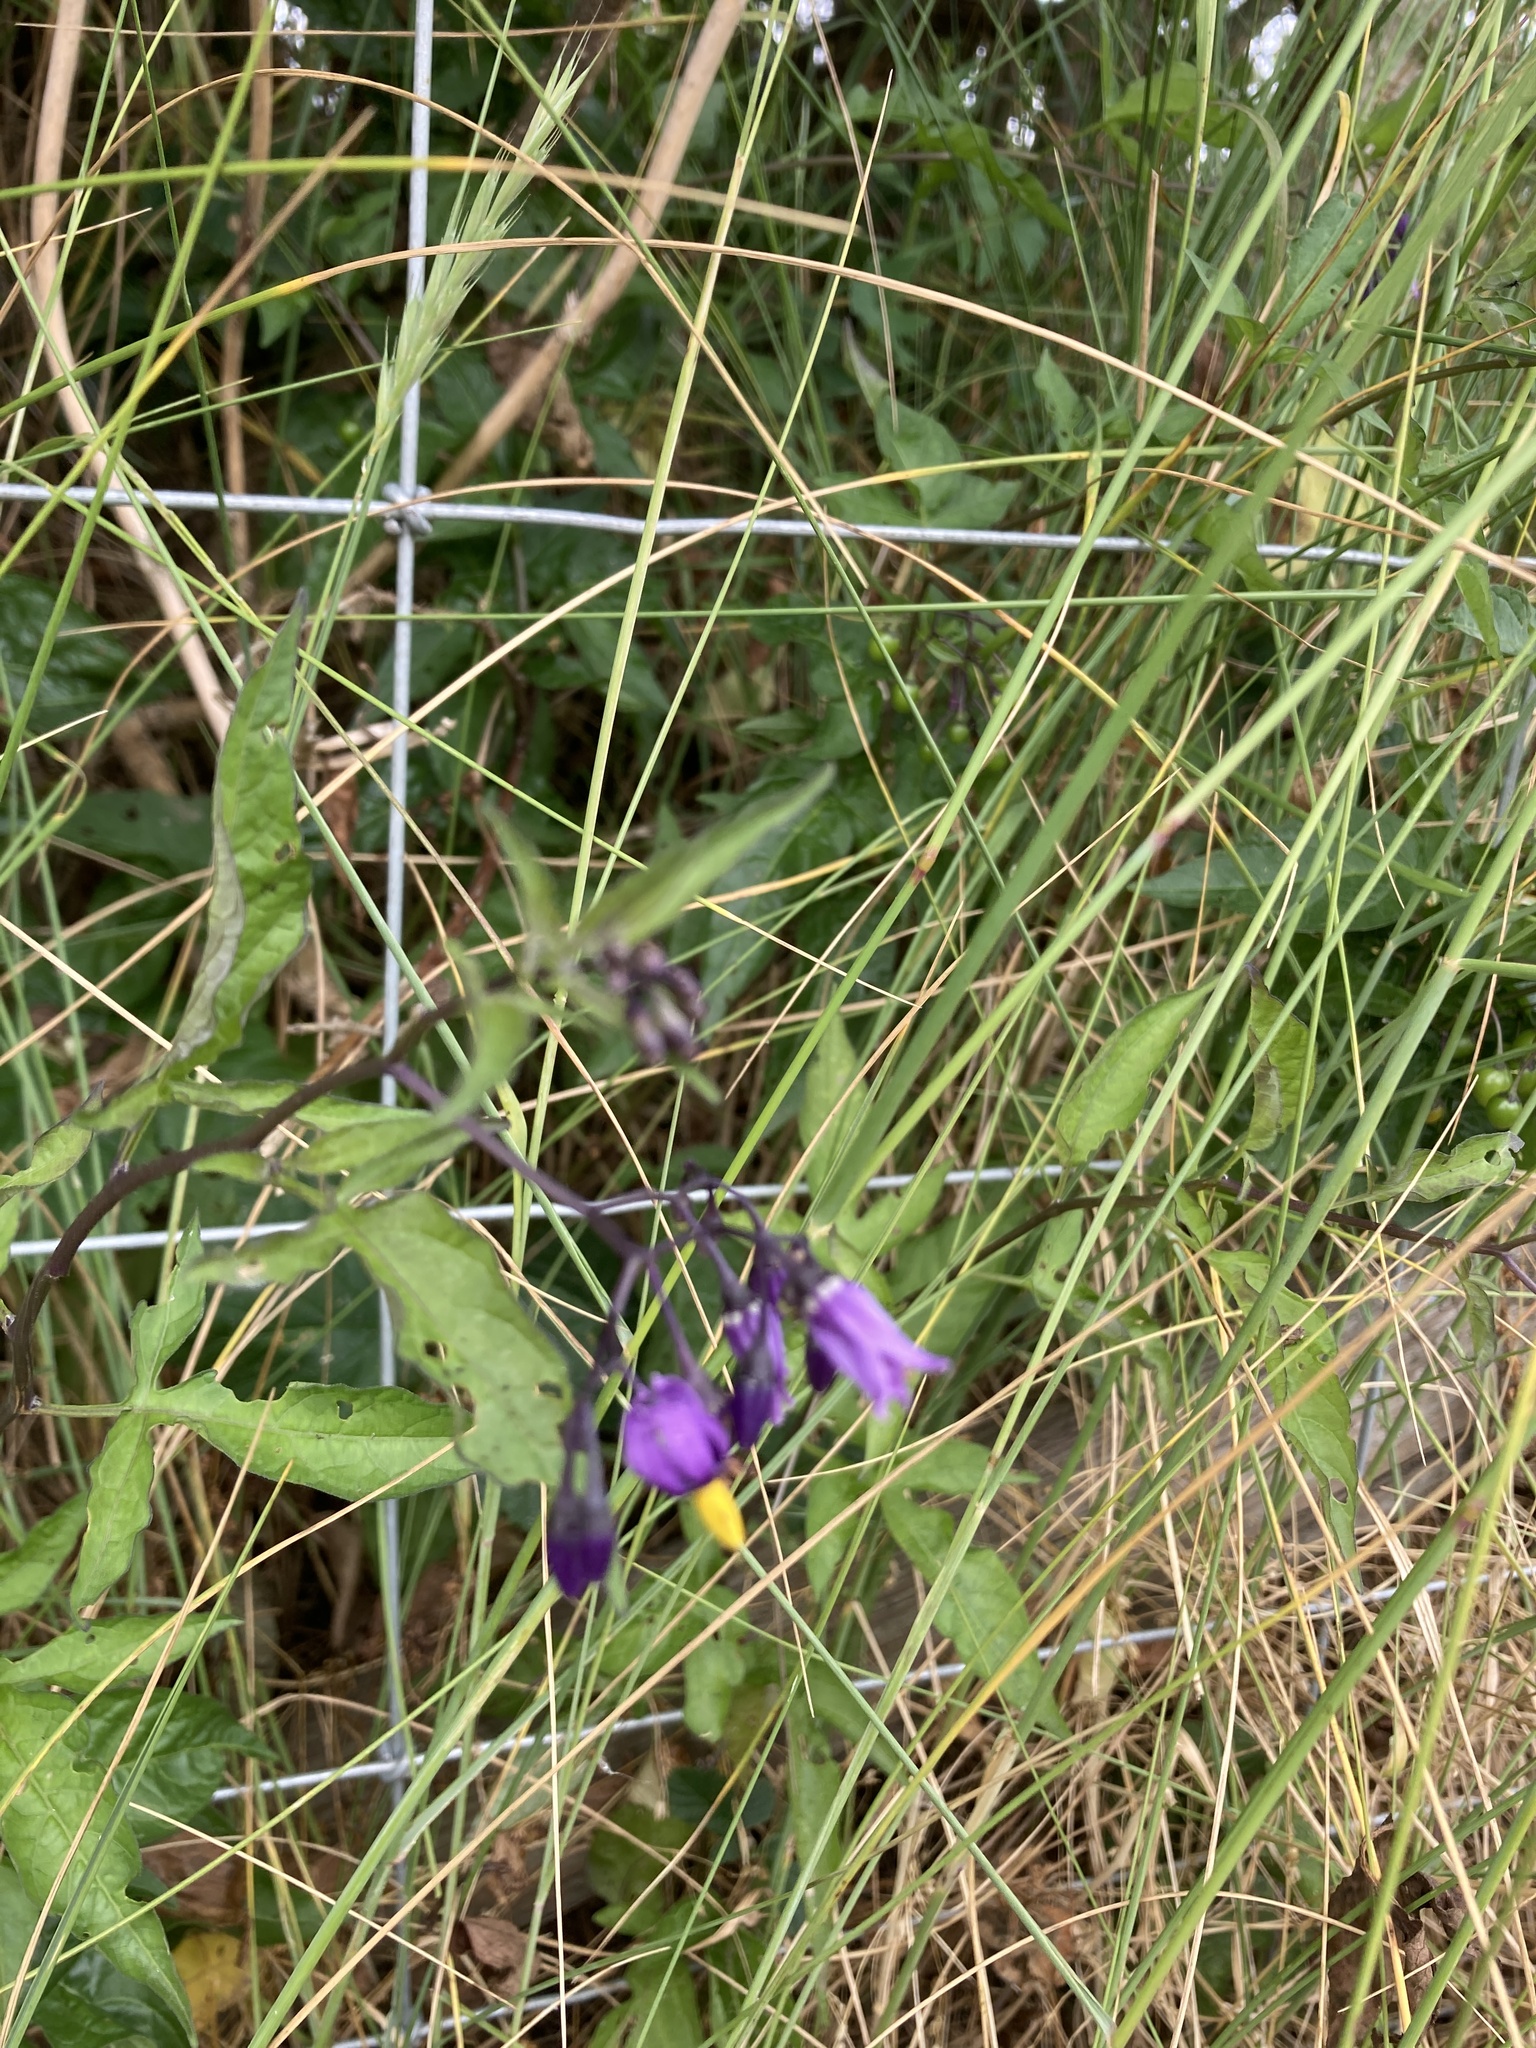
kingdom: Plantae
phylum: Tracheophyta
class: Magnoliopsida
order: Solanales
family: Solanaceae
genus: Solanum
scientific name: Solanum dulcamara
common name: Climbing nightshade
